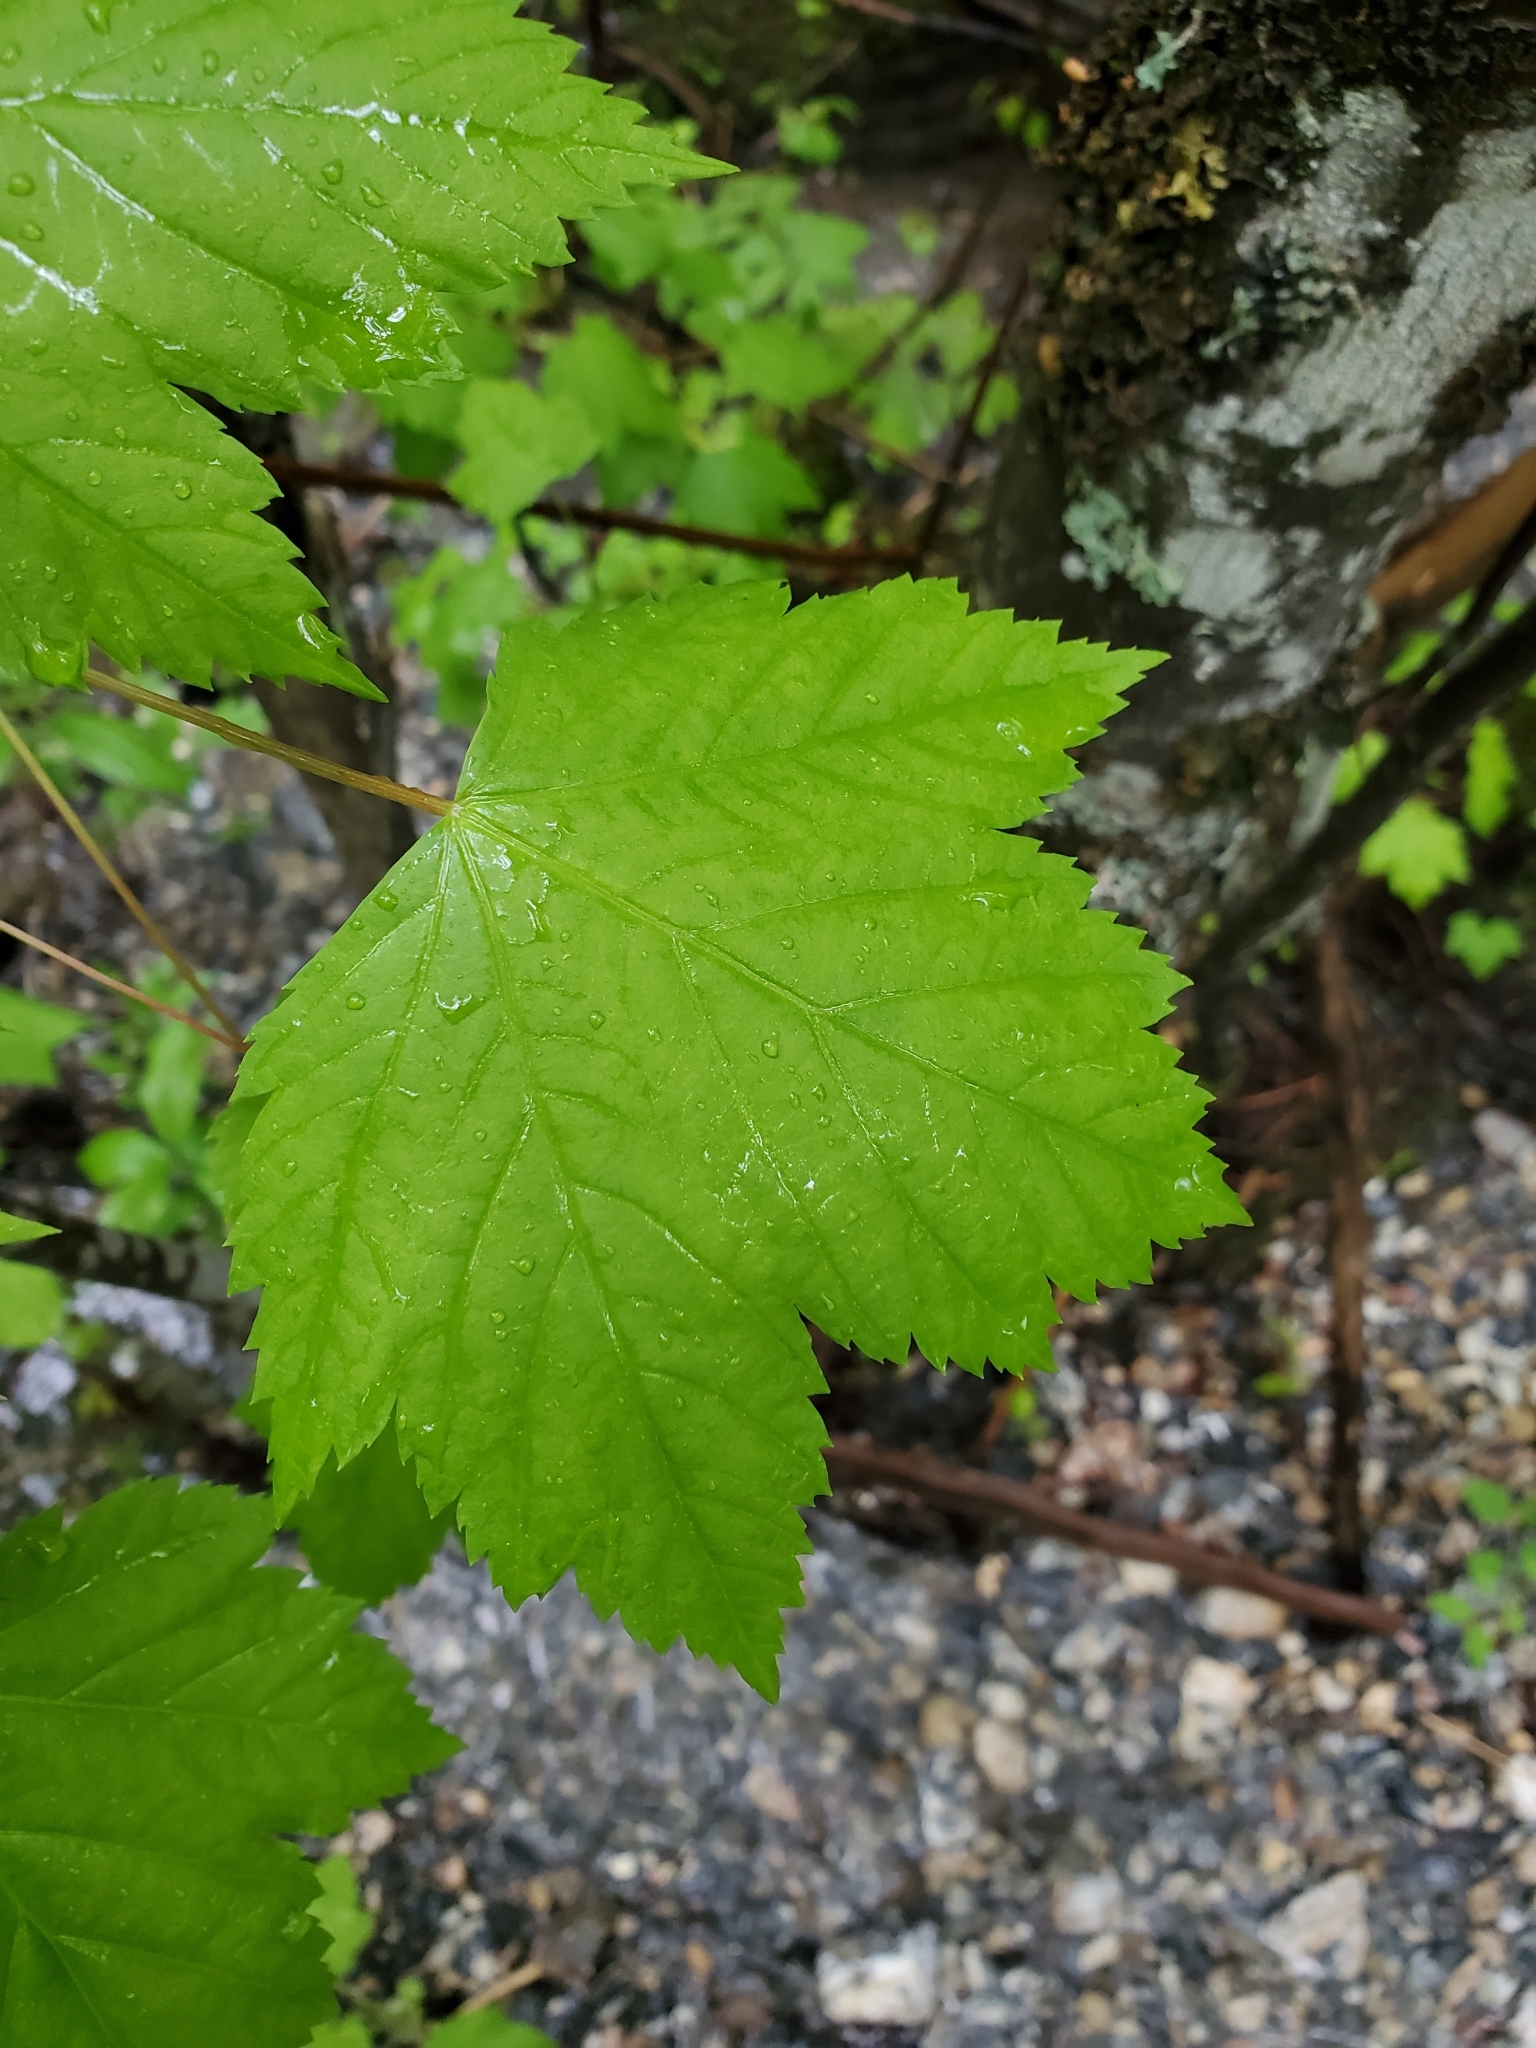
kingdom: Plantae
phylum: Tracheophyta
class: Magnoliopsida
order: Sapindales
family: Sapindaceae
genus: Acer
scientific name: Acer glabrum
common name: Rocky mountain maple
